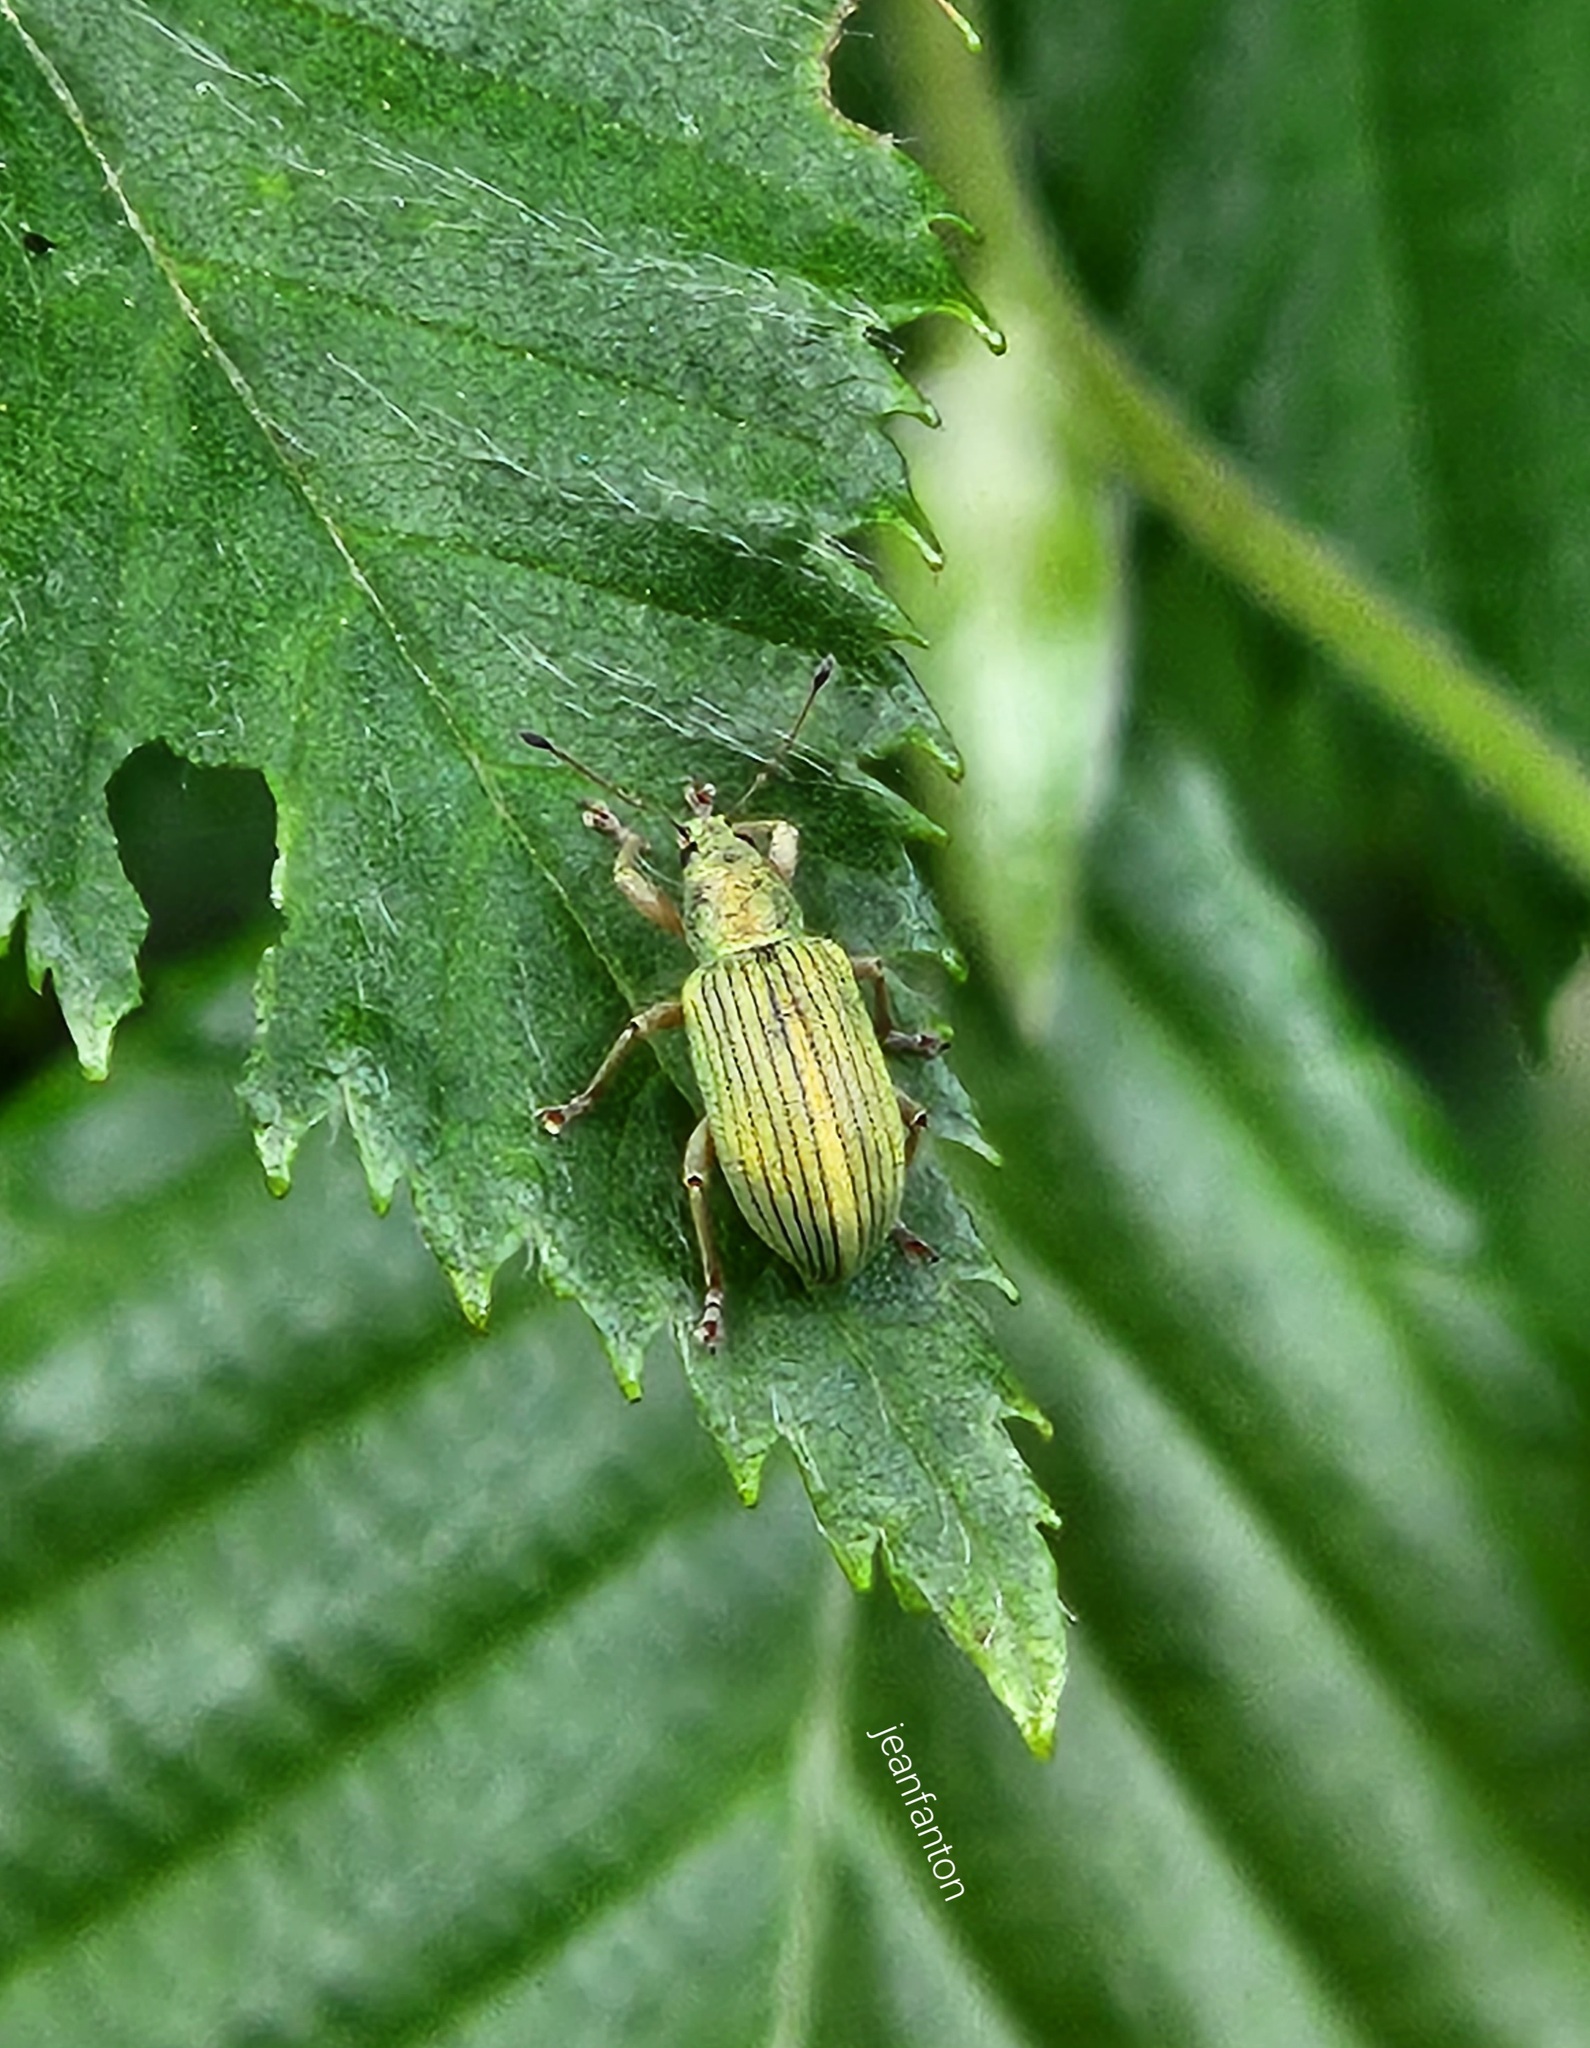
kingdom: Animalia
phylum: Arthropoda
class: Insecta
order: Coleoptera
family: Curculionidae
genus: Polydrusus
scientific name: Polydrusus formosus
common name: Weevil
